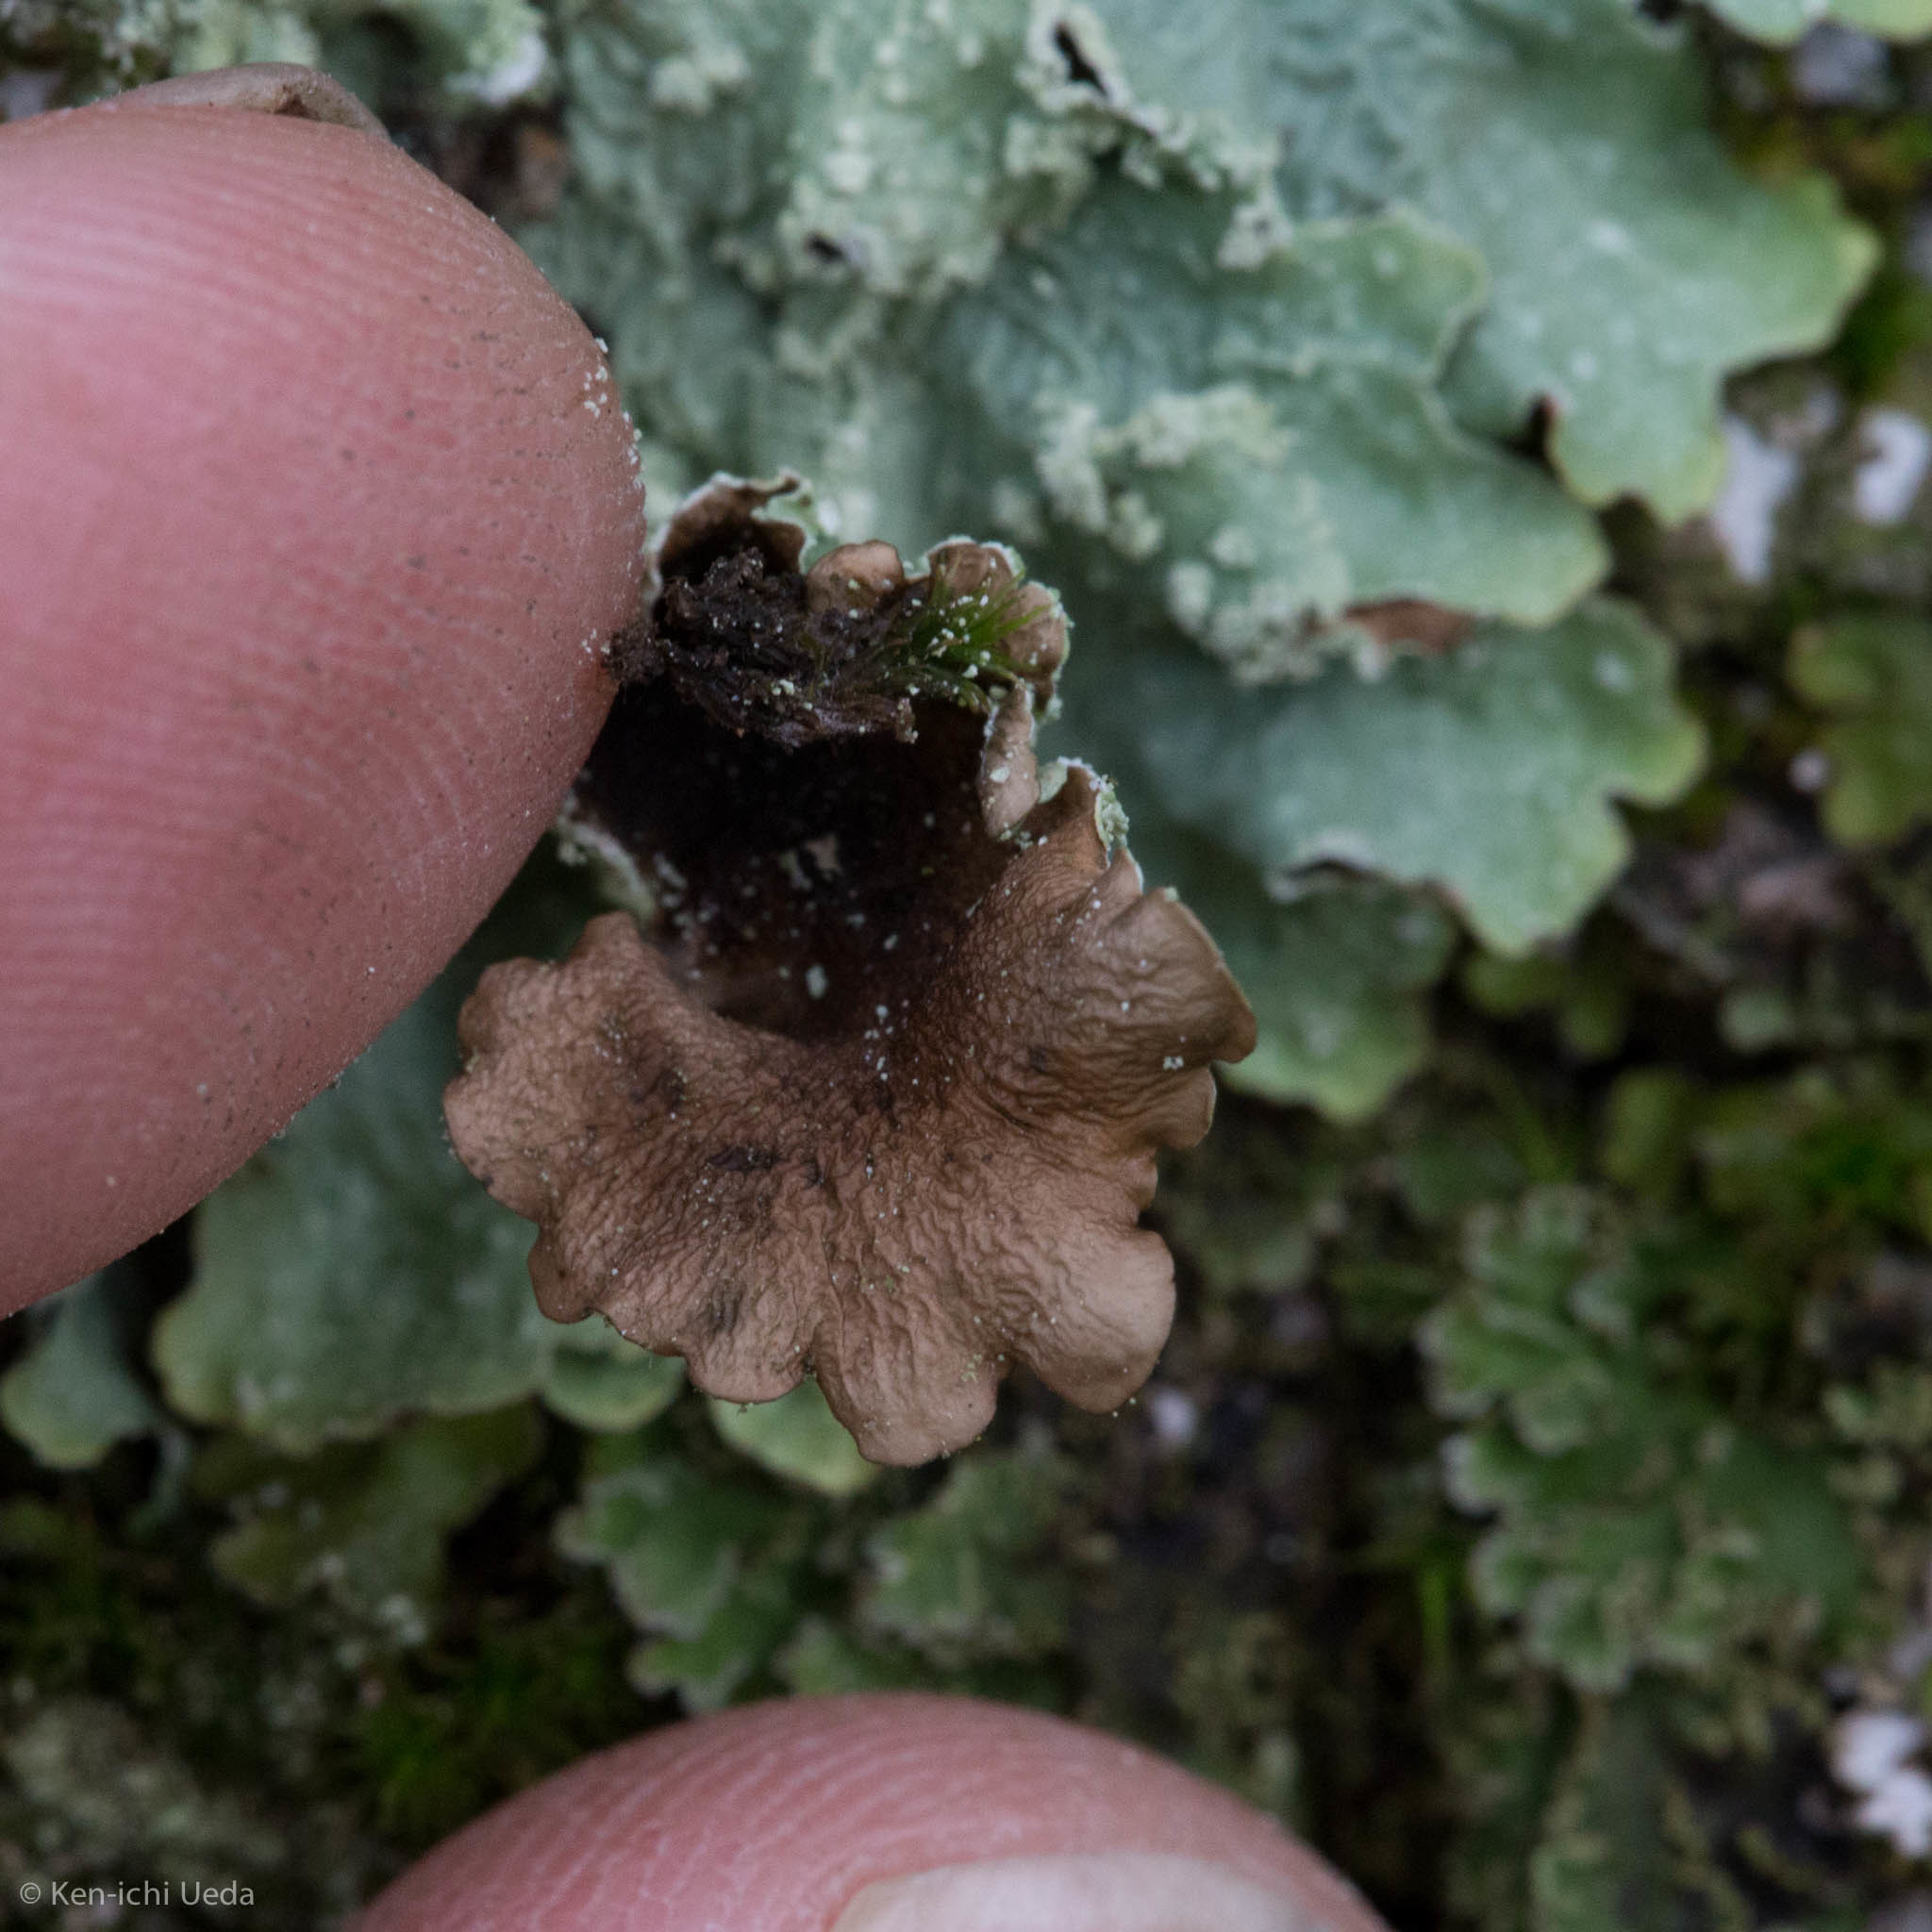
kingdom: Fungi
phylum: Ascomycota
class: Lecanoromycetes
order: Lecanorales
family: Parmeliaceae
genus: Flavopunctelia
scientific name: Flavopunctelia flaventior
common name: Speckled greenshield
